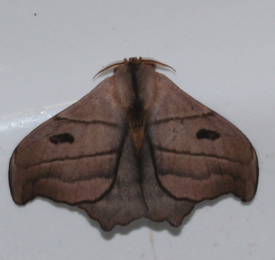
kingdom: Animalia
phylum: Arthropoda
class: Insecta
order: Lepidoptera
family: Saturniidae
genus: Hylesia
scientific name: Hylesia melanostigma
